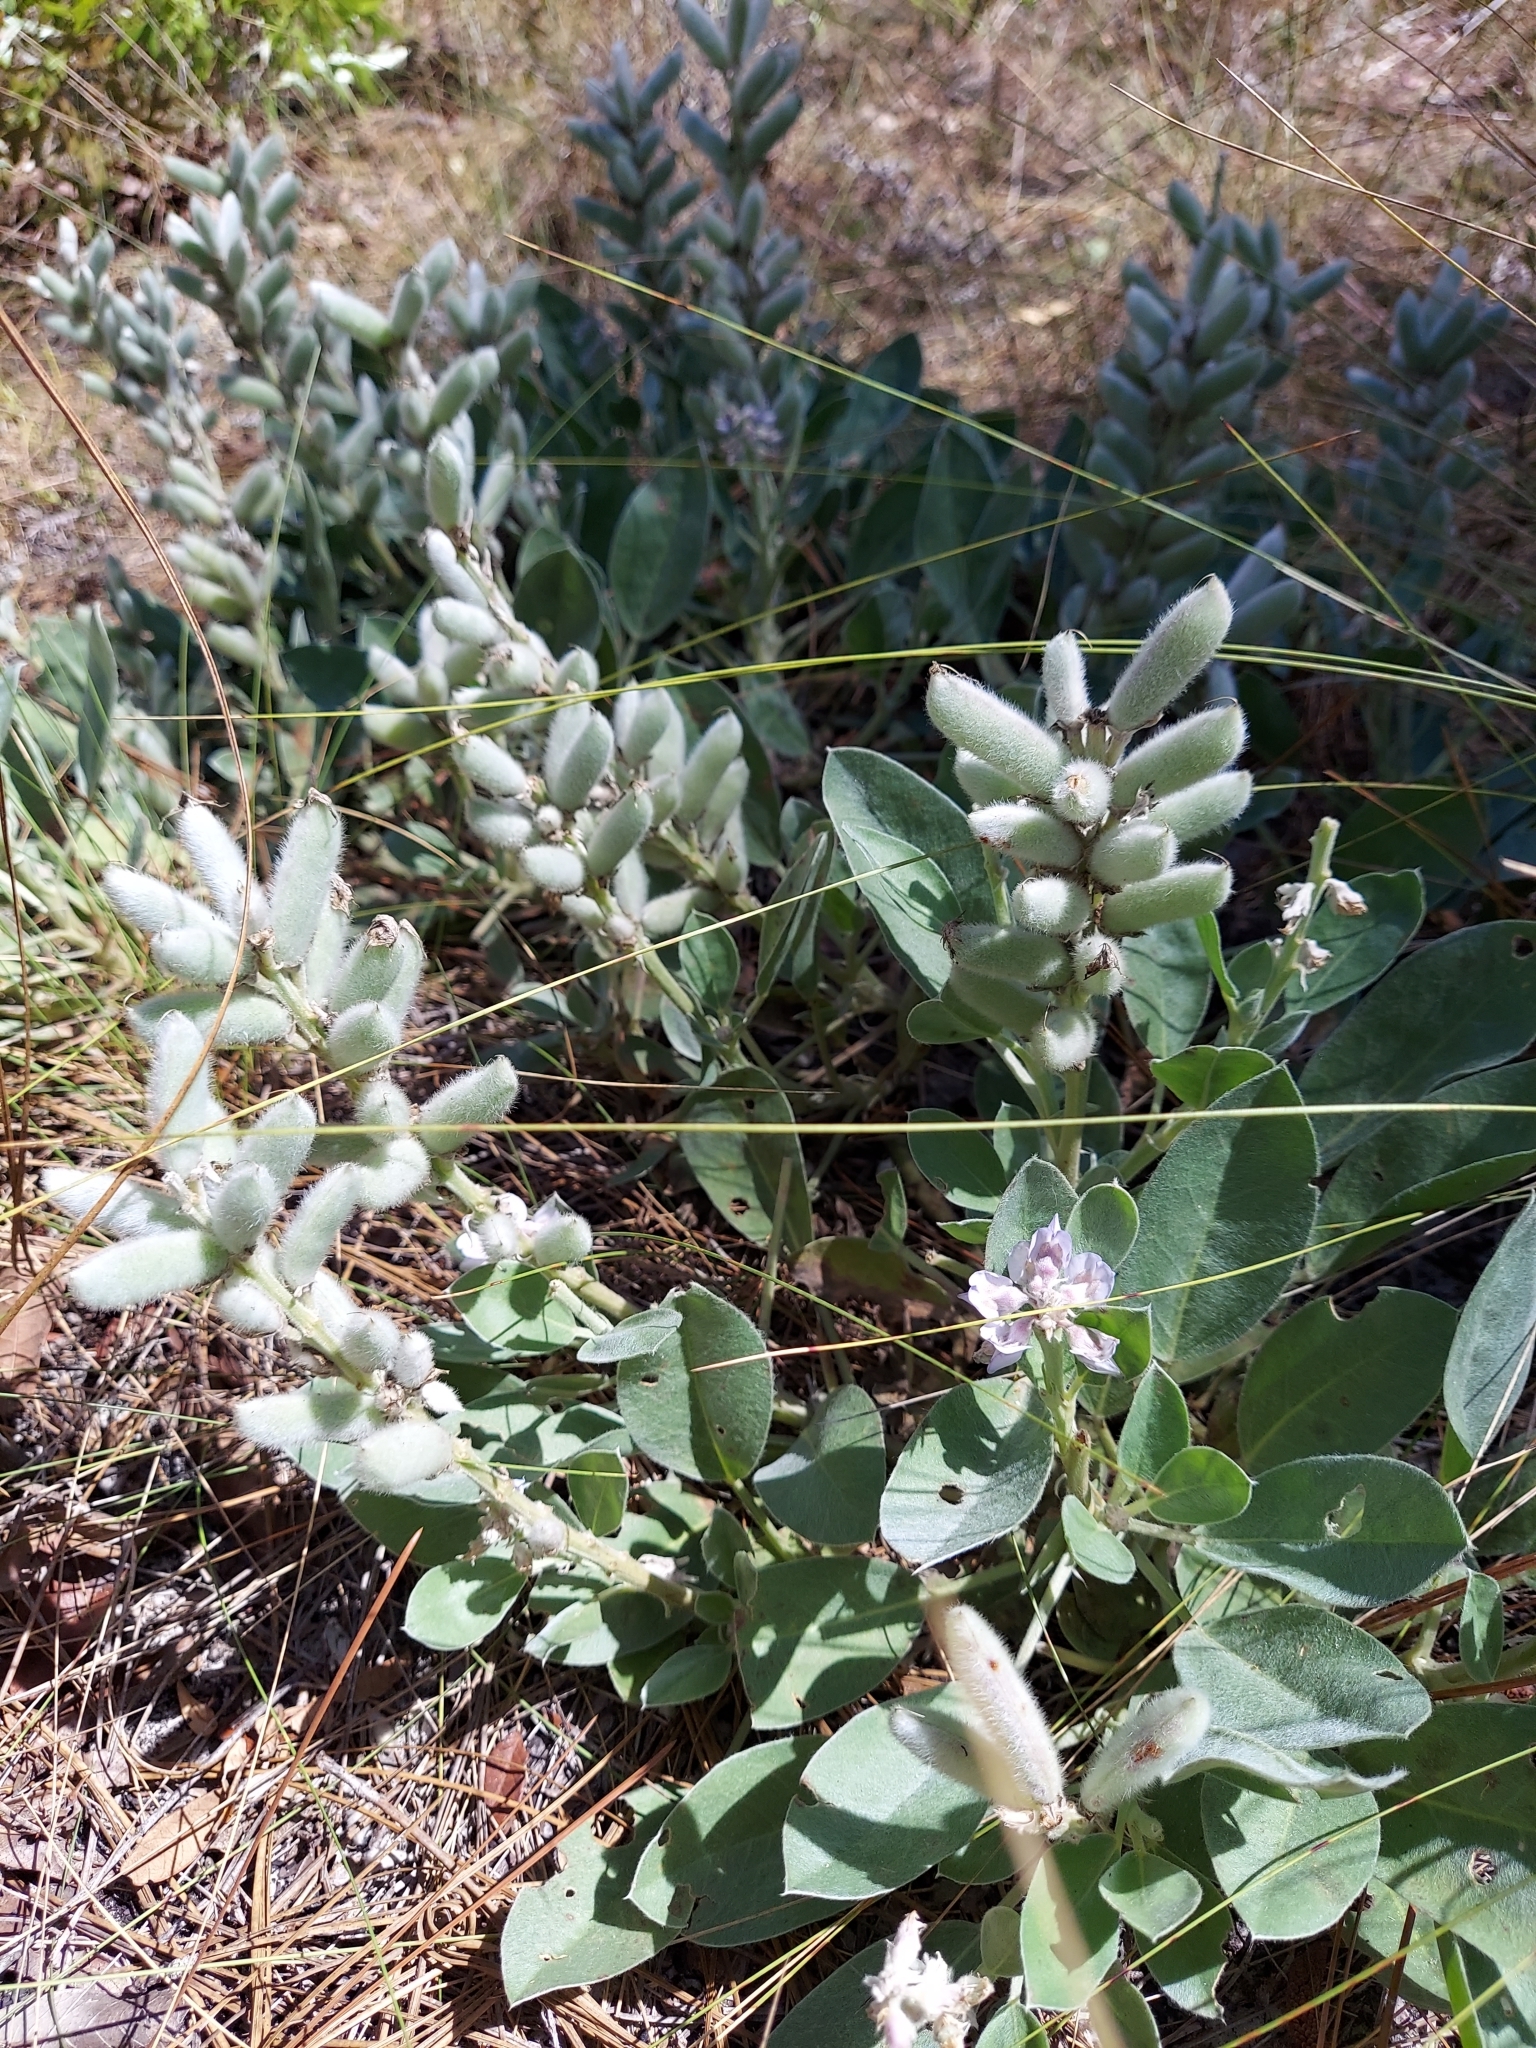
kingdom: Plantae
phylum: Tracheophyta
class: Magnoliopsida
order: Fabales
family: Fabaceae
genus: Lupinus
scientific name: Lupinus
